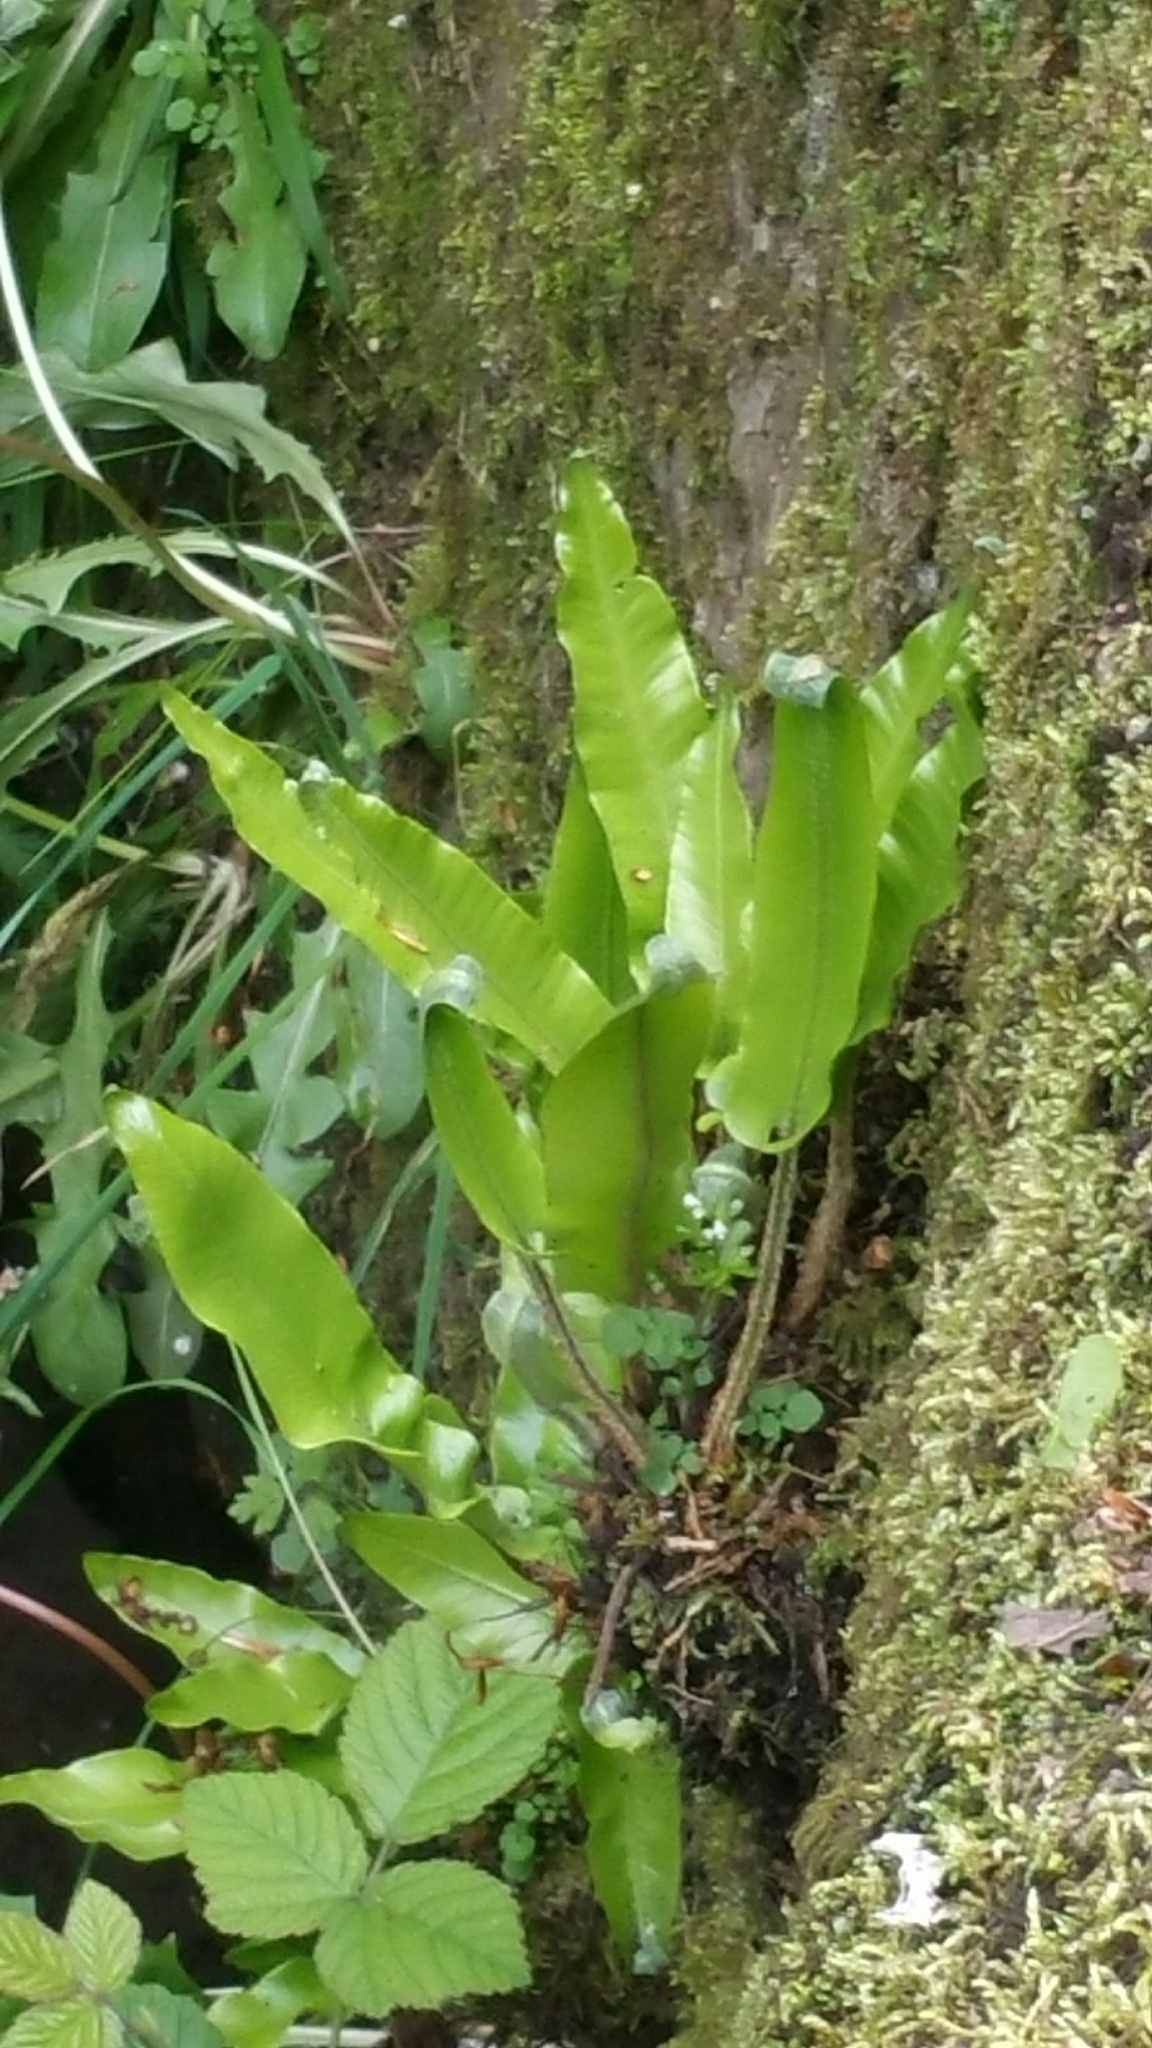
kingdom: Plantae
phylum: Tracheophyta
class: Polypodiopsida
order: Polypodiales
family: Aspleniaceae
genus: Asplenium
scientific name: Asplenium scolopendrium
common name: Hart's-tongue fern
